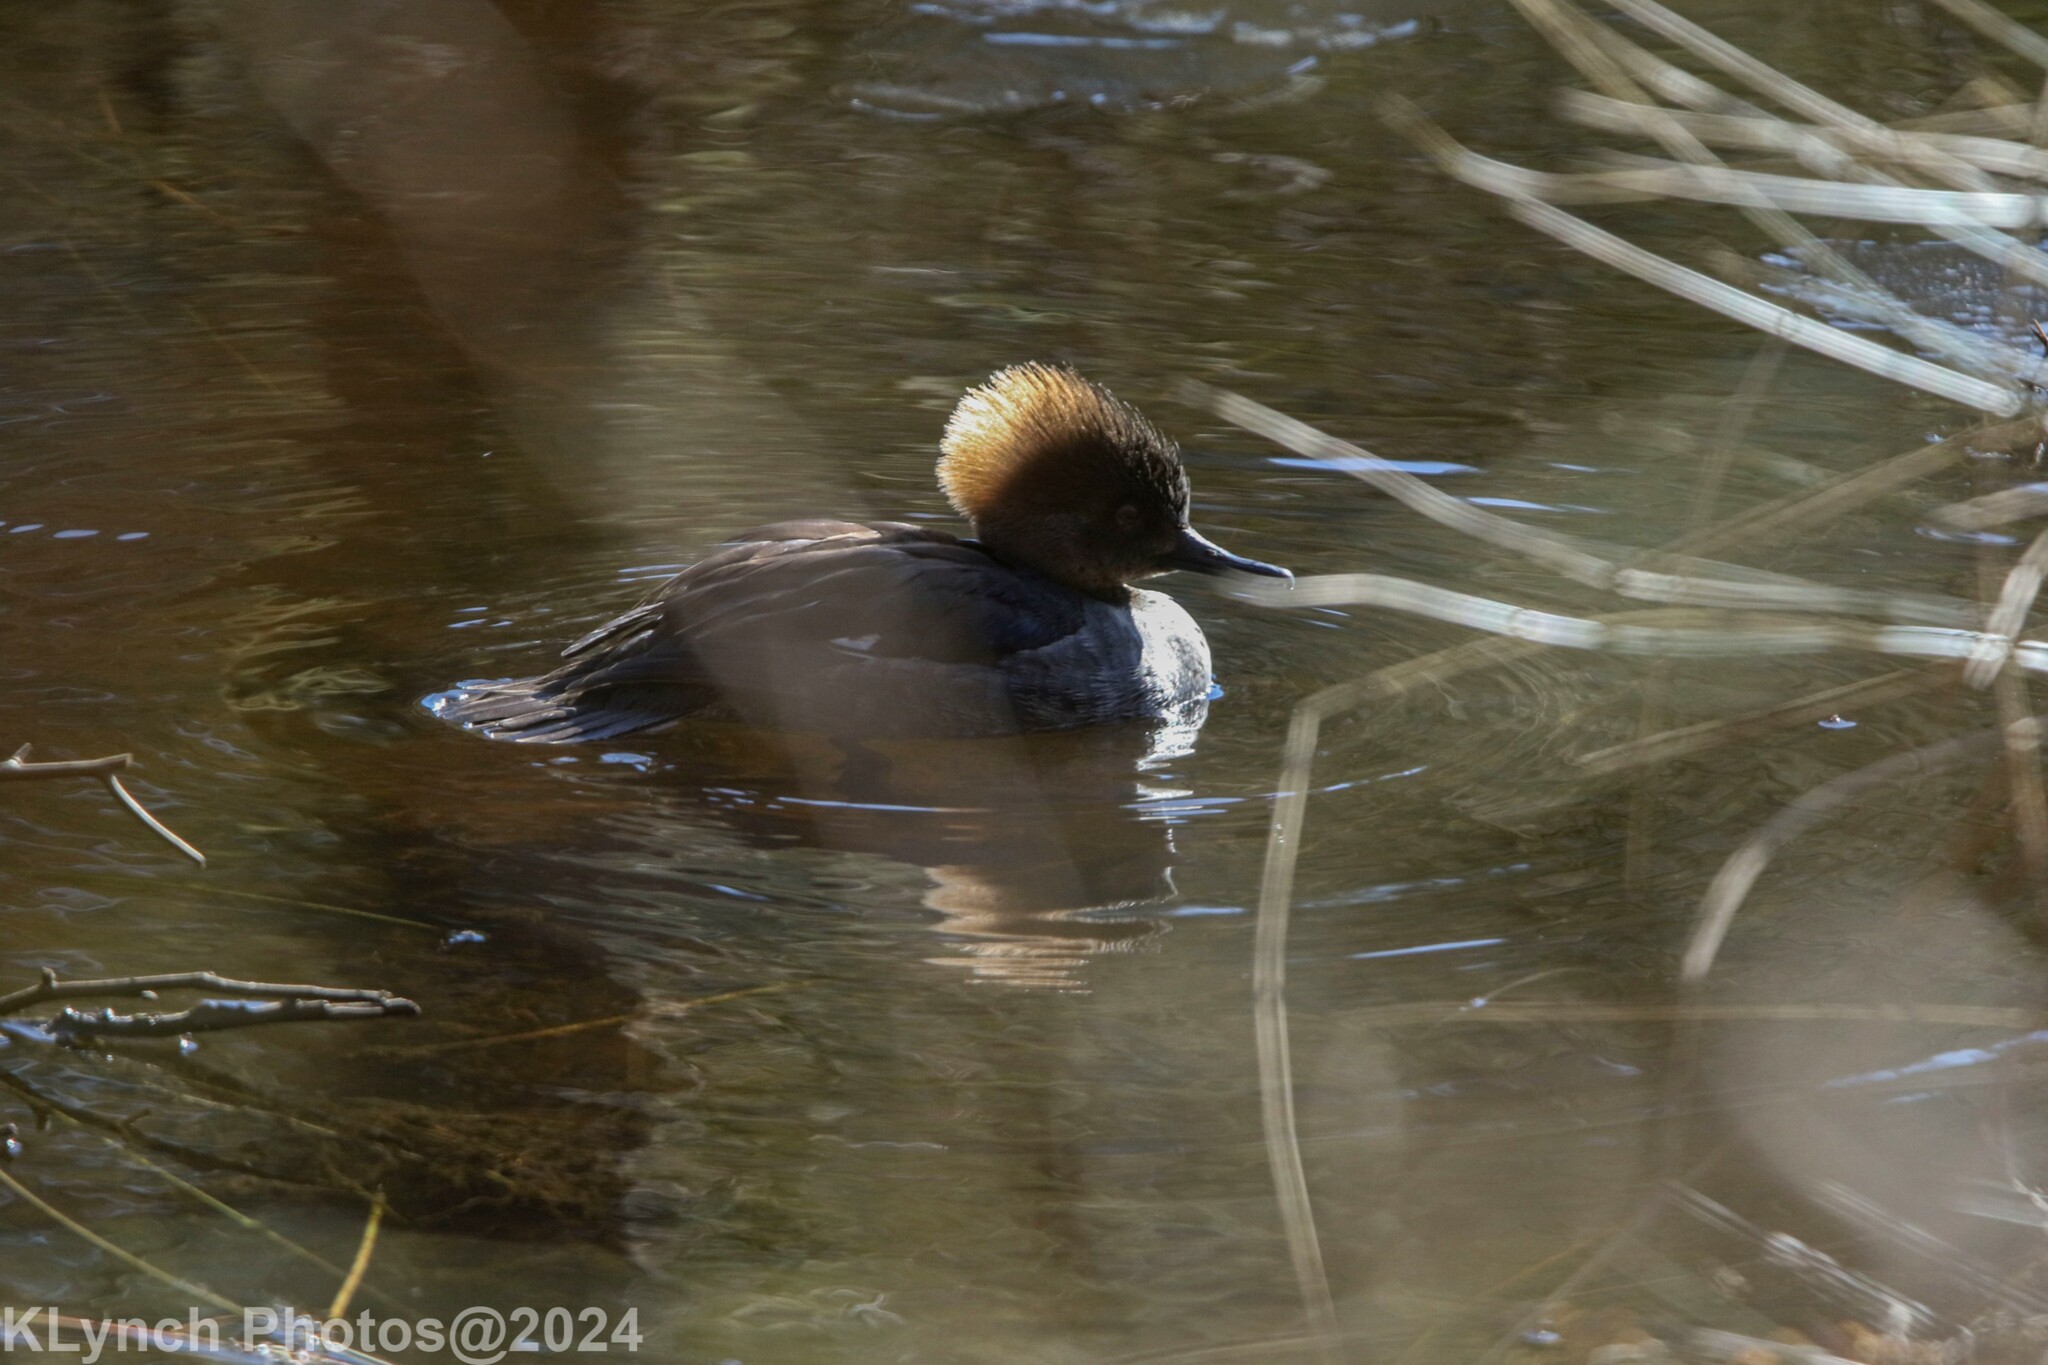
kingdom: Animalia
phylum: Chordata
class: Aves
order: Anseriformes
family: Anatidae
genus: Lophodytes
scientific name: Lophodytes cucullatus
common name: Hooded merganser
